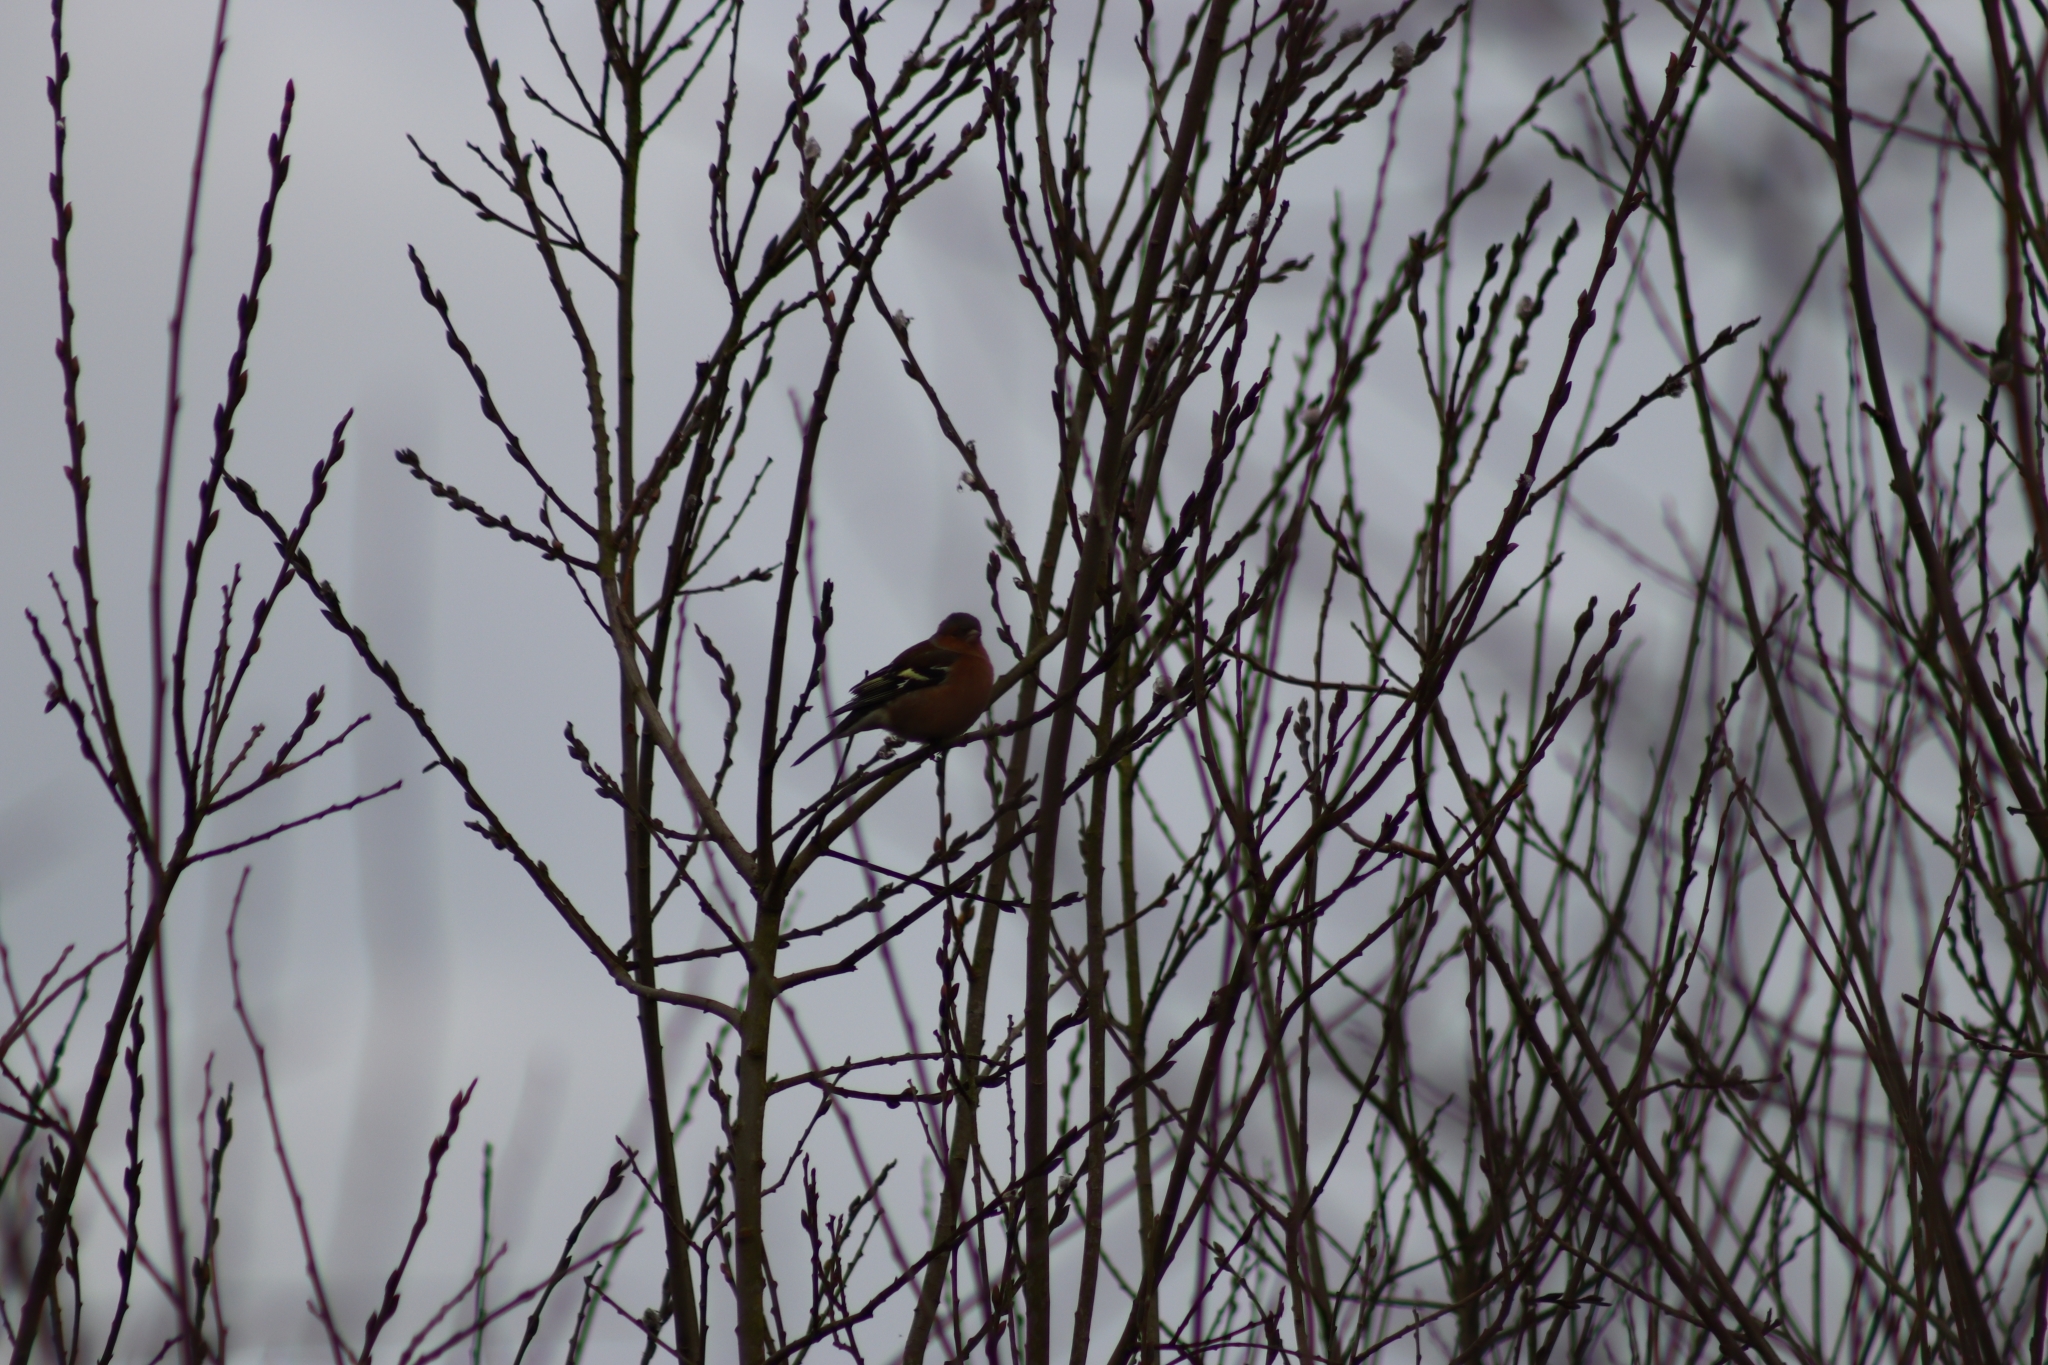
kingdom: Animalia
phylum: Chordata
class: Aves
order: Passeriformes
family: Fringillidae
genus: Fringilla
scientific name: Fringilla coelebs
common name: Common chaffinch
